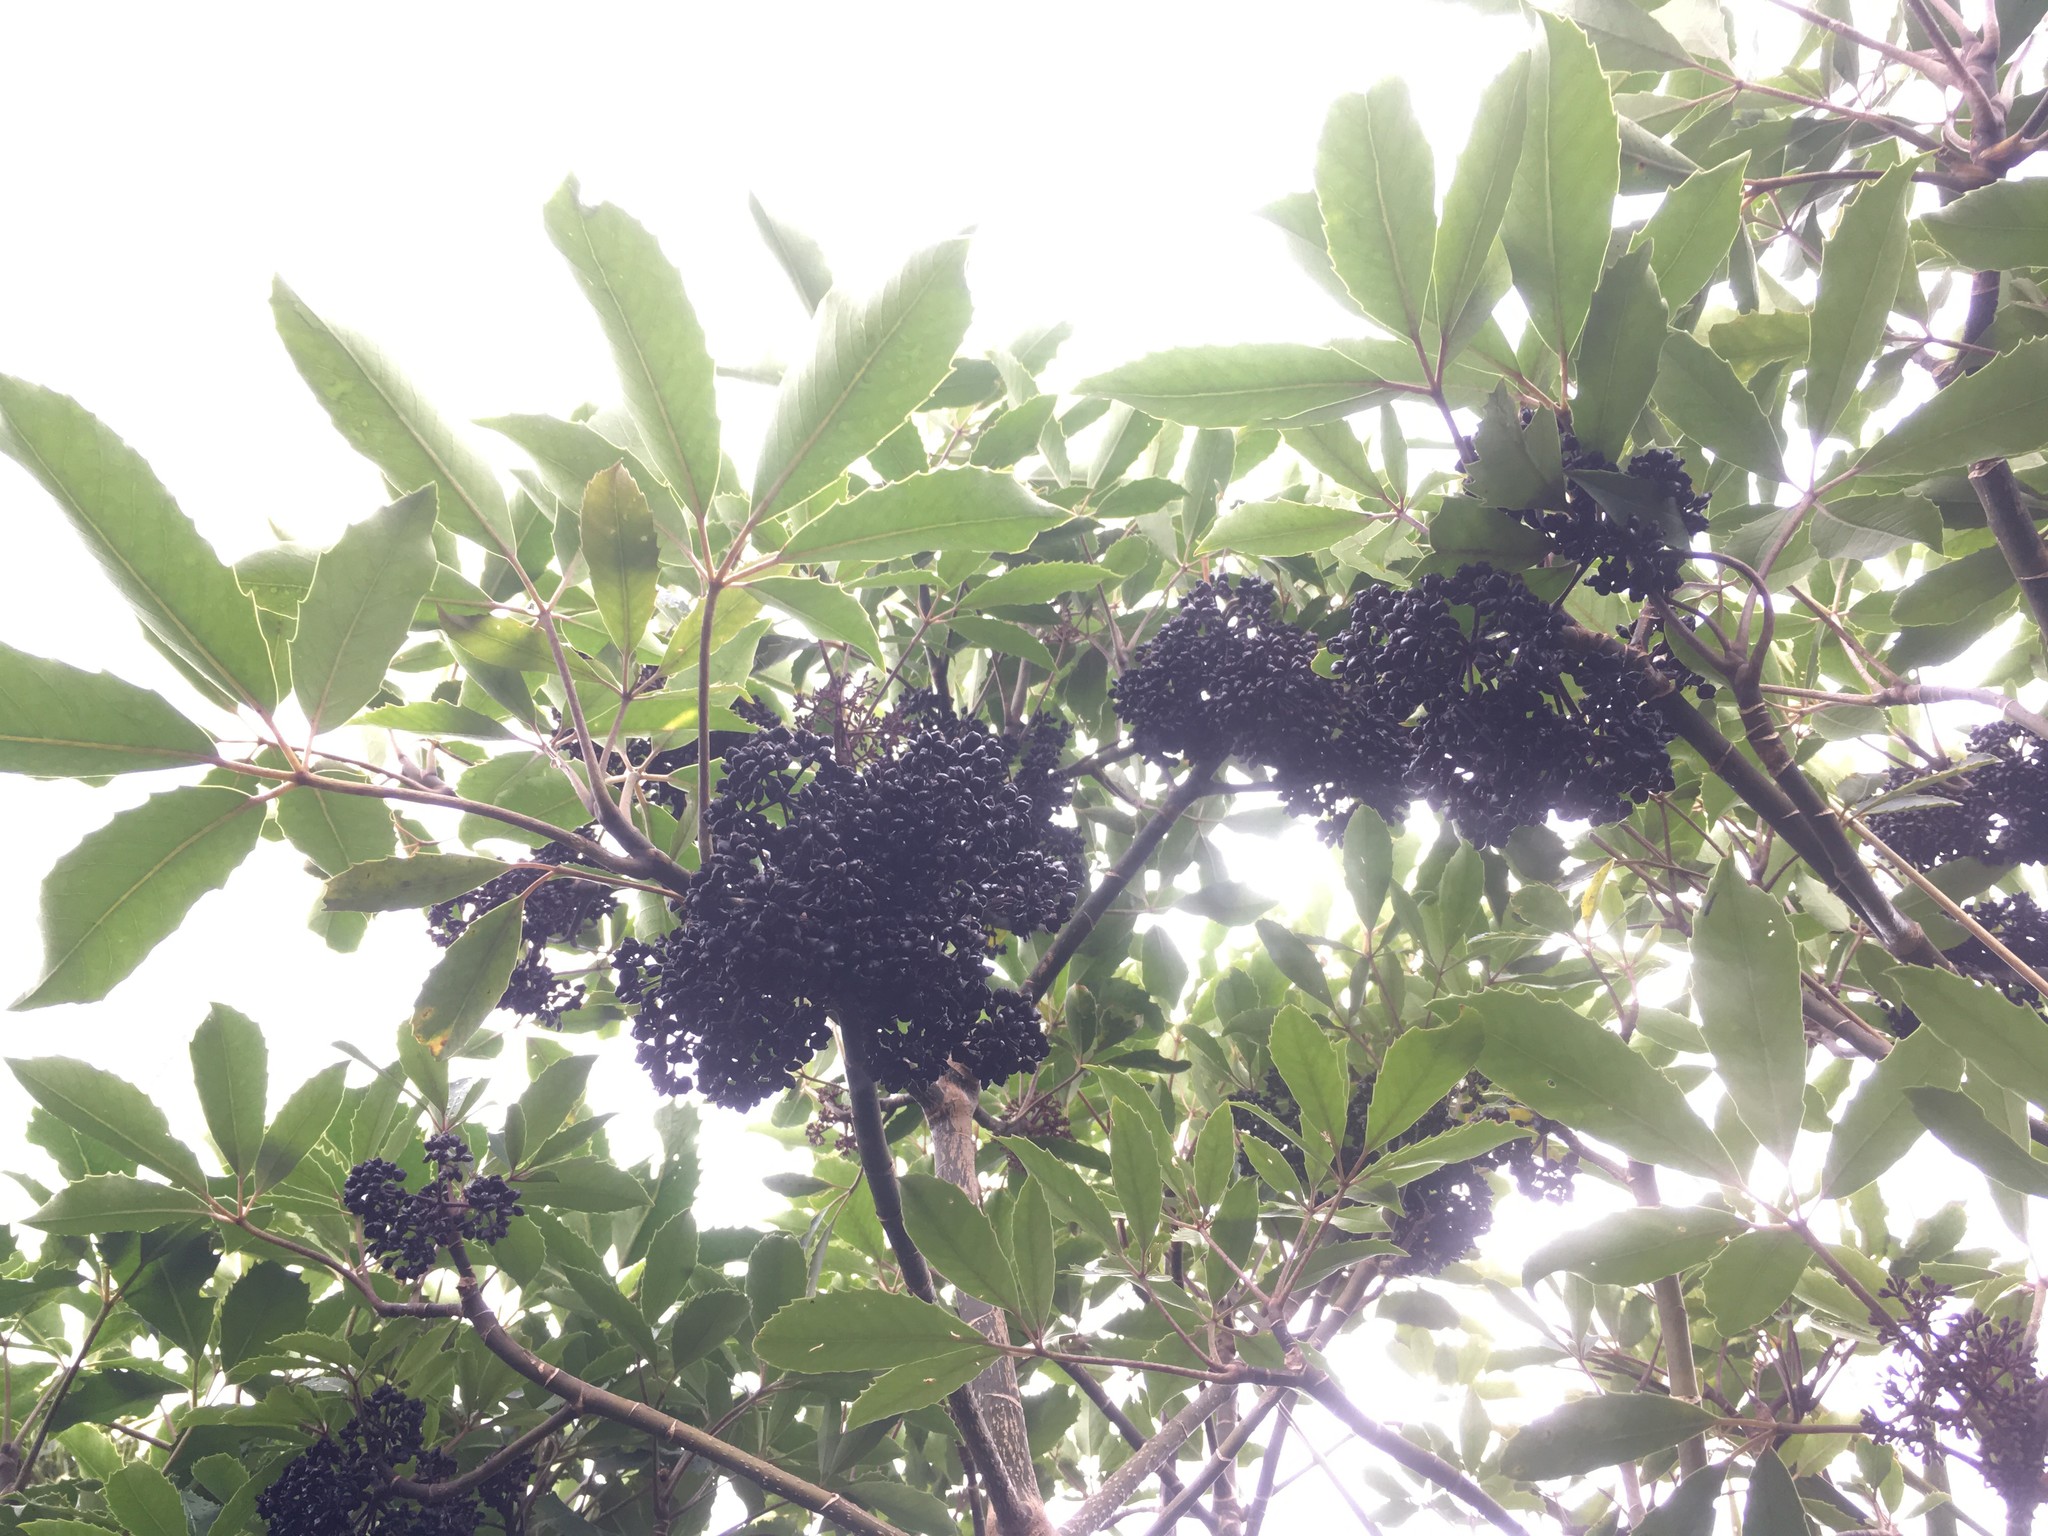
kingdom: Plantae
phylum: Tracheophyta
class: Magnoliopsida
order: Apiales
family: Araliaceae
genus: Neopanax
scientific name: Neopanax arboreus
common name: Five-fingers
